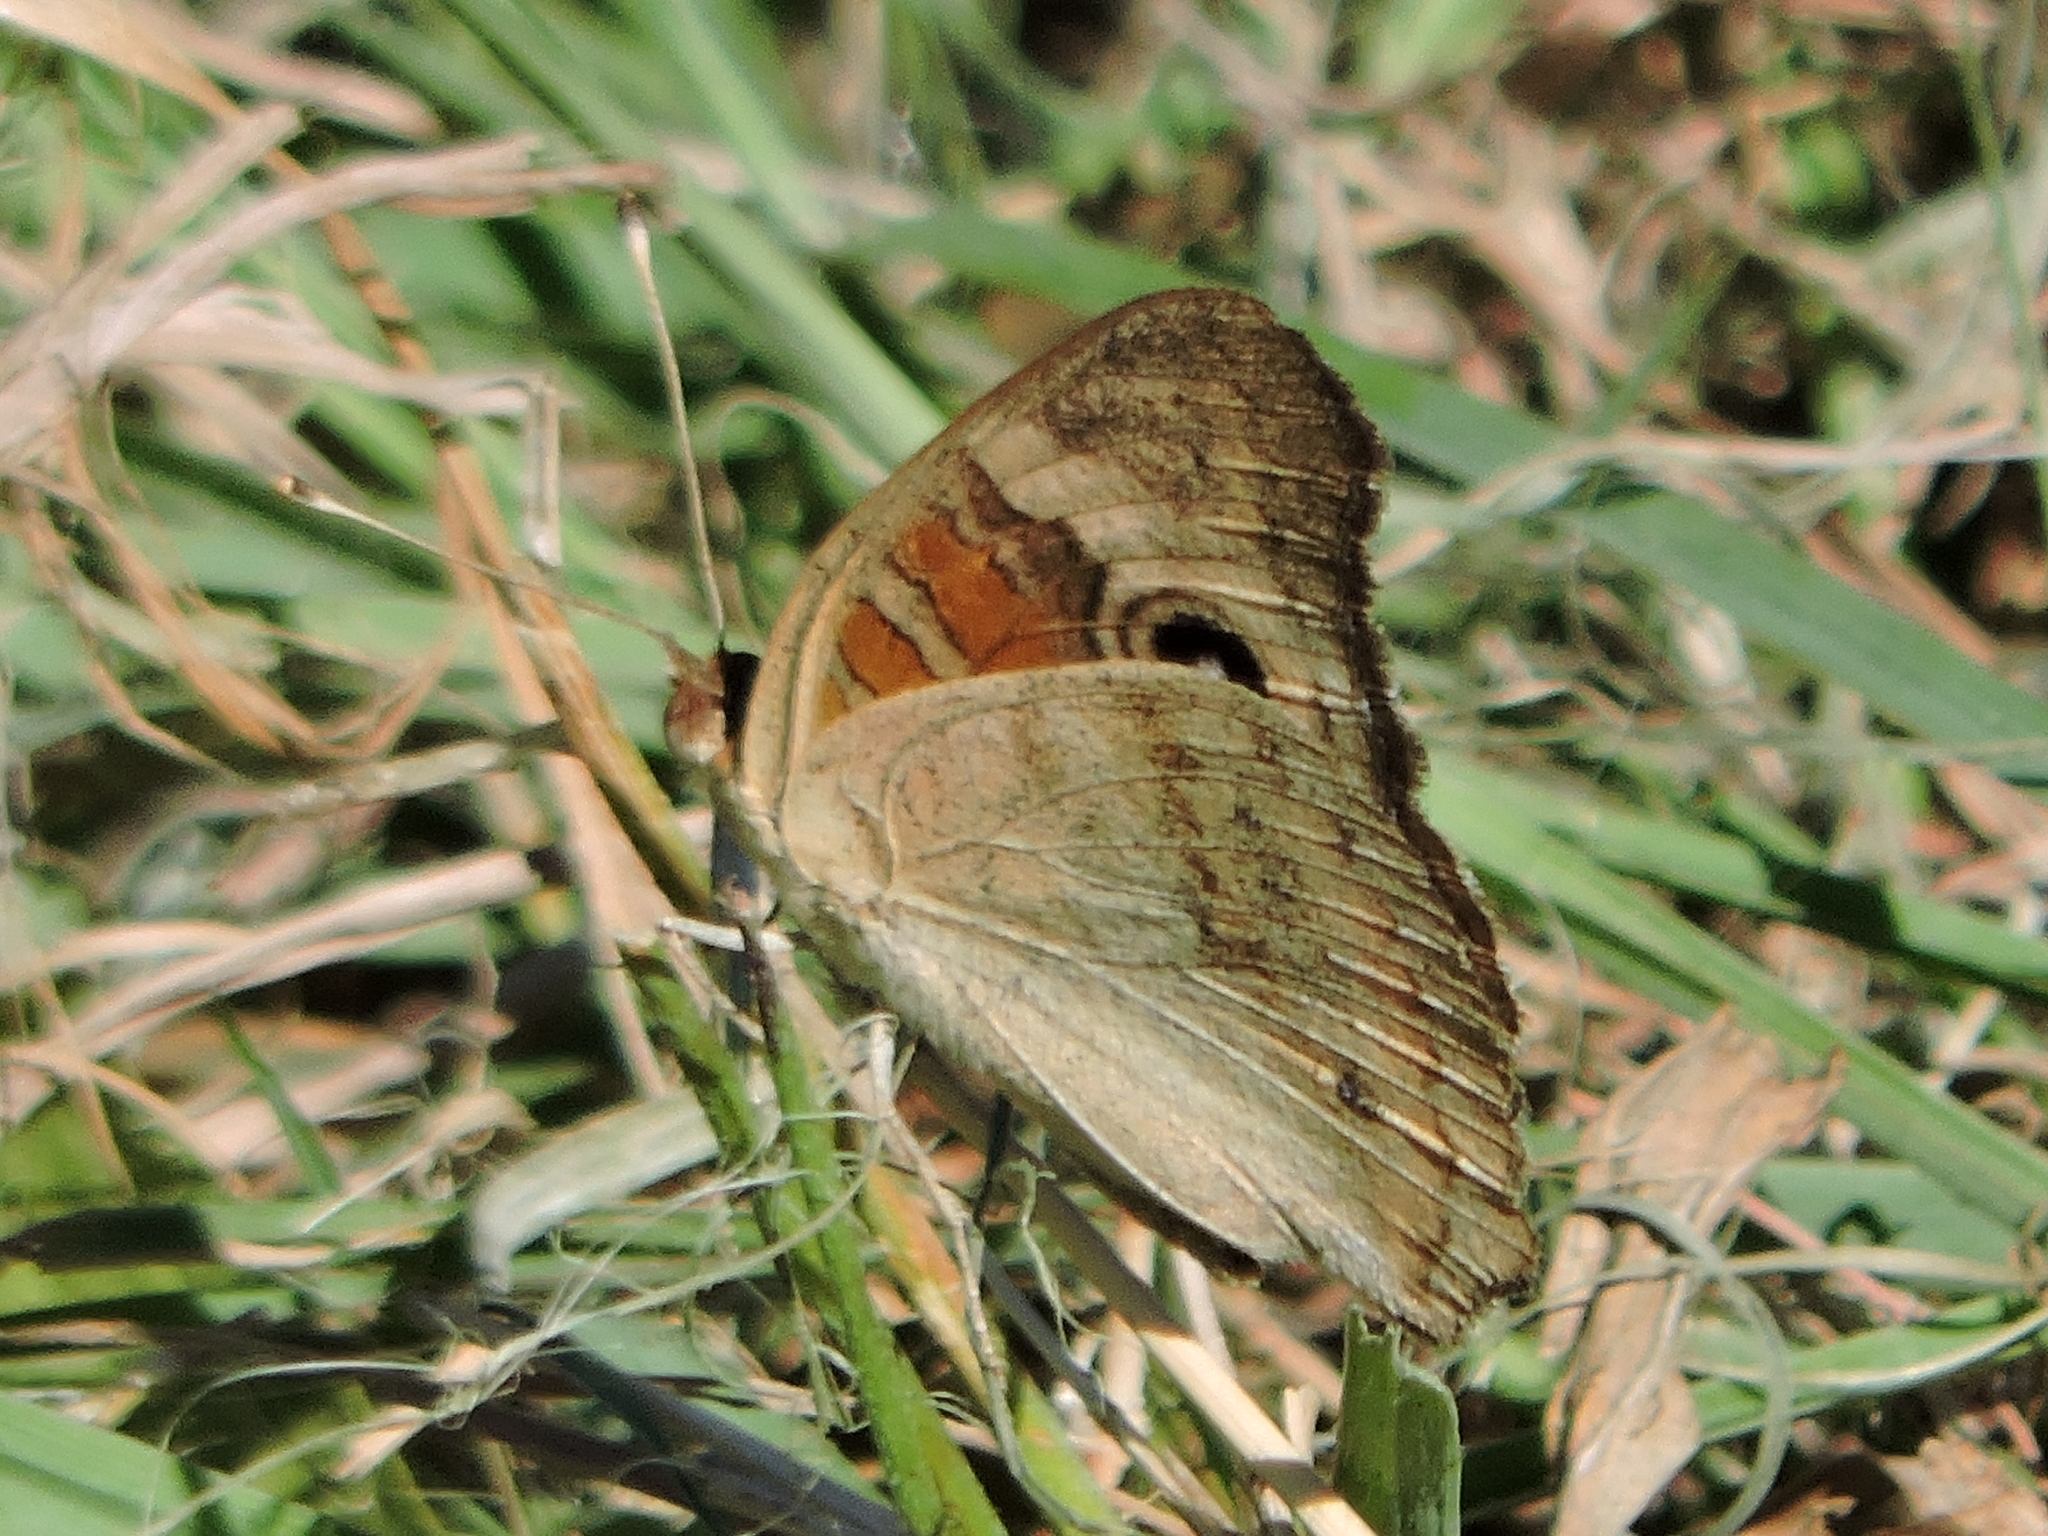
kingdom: Animalia
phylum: Arthropoda
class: Insecta
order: Lepidoptera
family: Nymphalidae
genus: Junonia
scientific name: Junonia coenia
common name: Common buckeye
